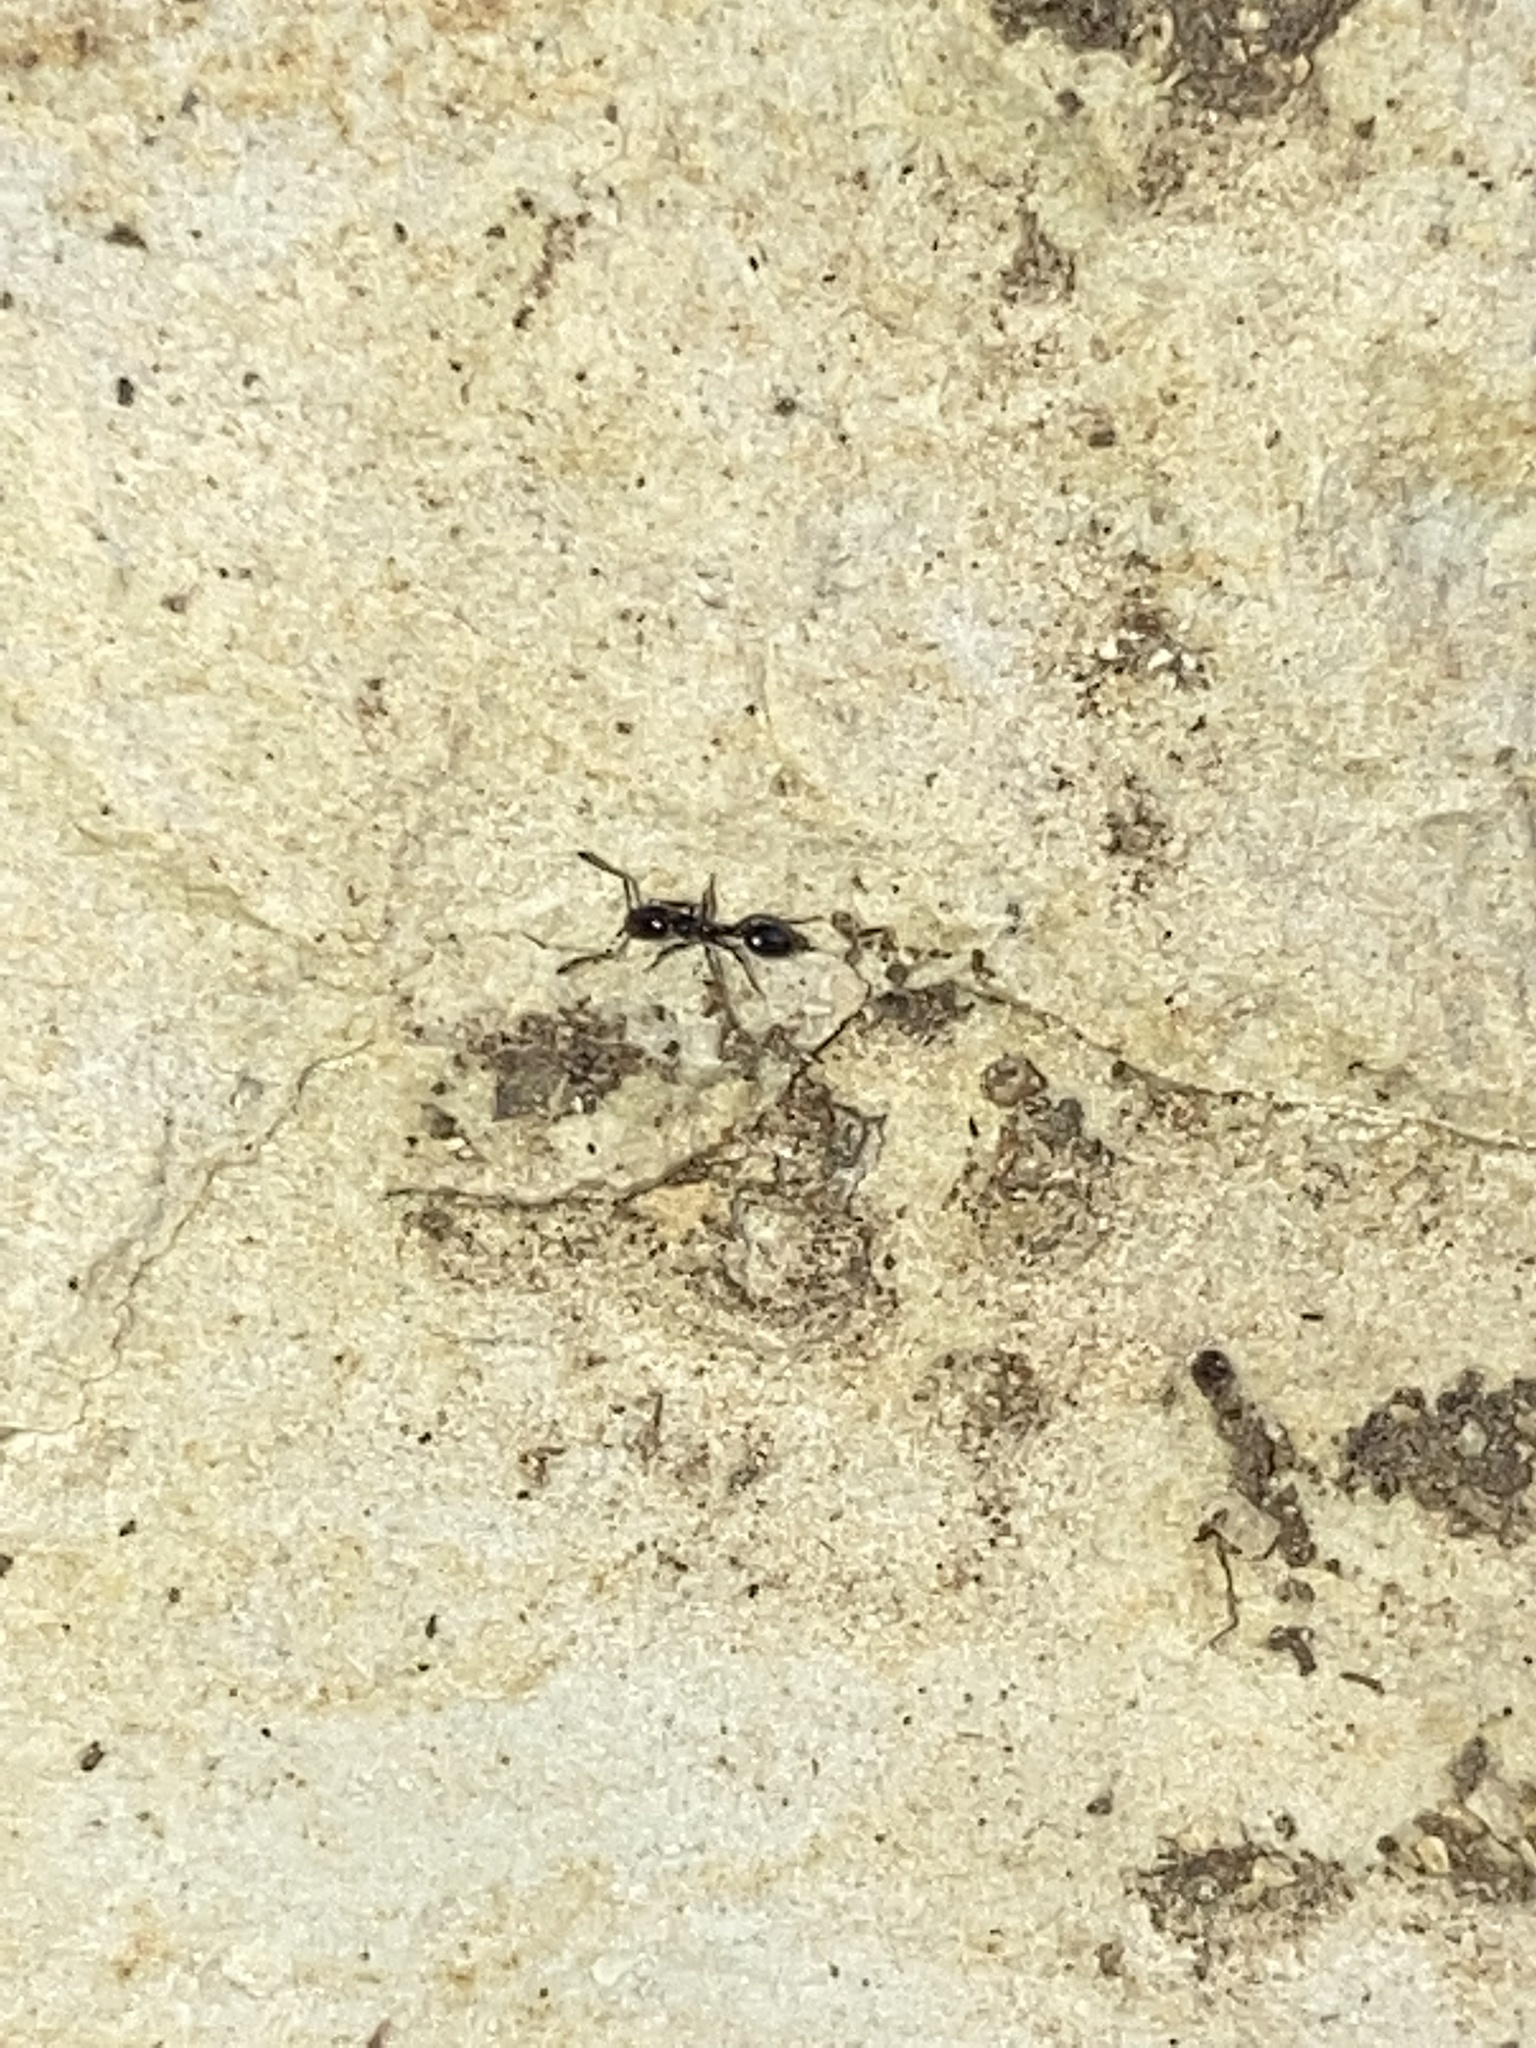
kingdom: Animalia
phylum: Arthropoda
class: Insecta
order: Hymenoptera
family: Formicidae
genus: Monomorium
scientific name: Monomorium minimum
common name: Little black ant
